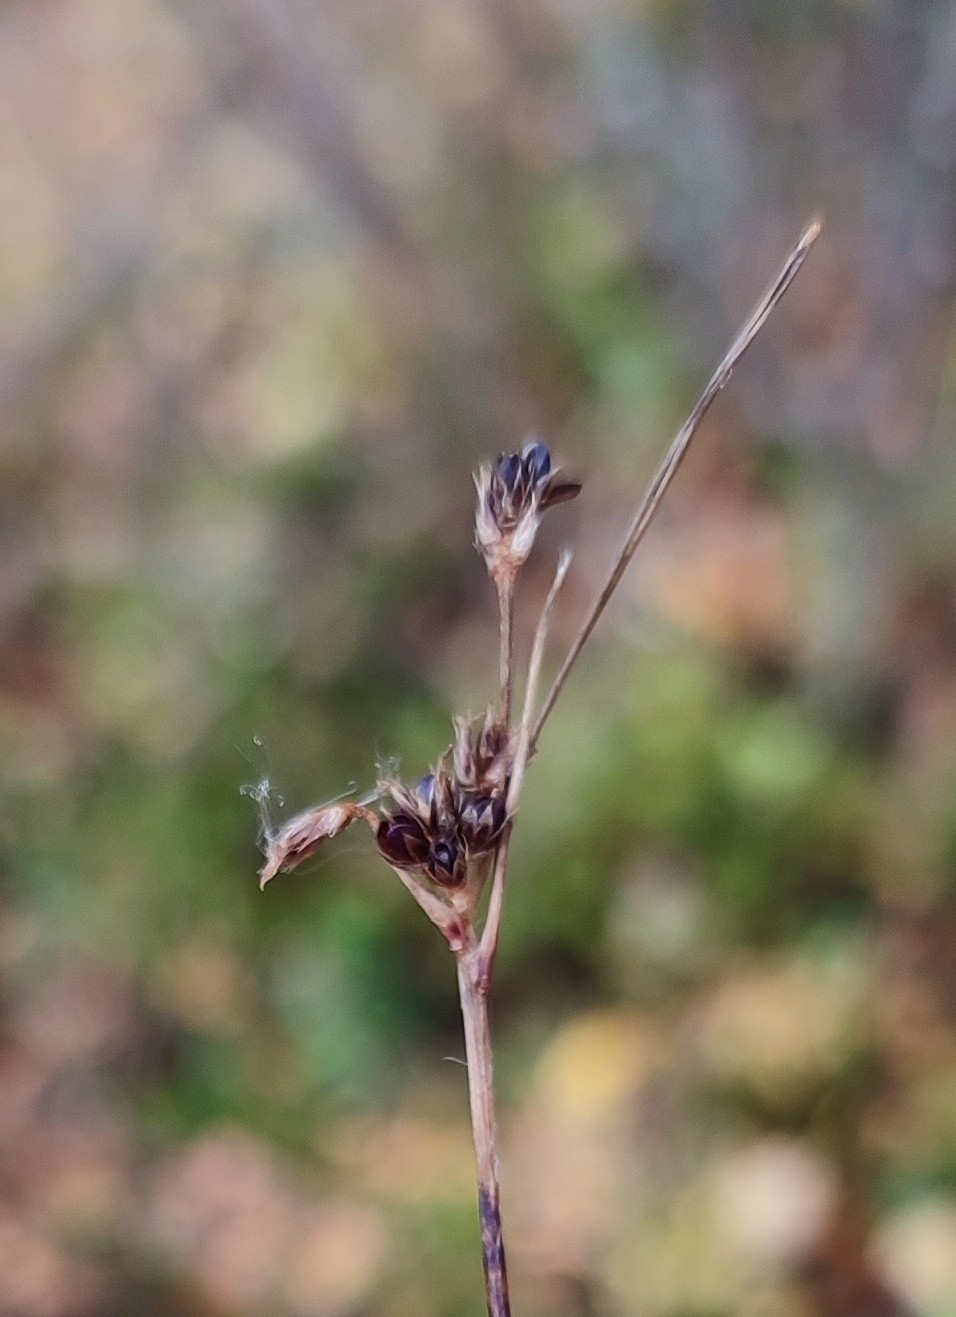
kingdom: Plantae
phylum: Tracheophyta
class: Liliopsida
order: Poales
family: Juncaceae
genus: Luzula
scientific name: Luzula multiflora
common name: Heath wood-rush
